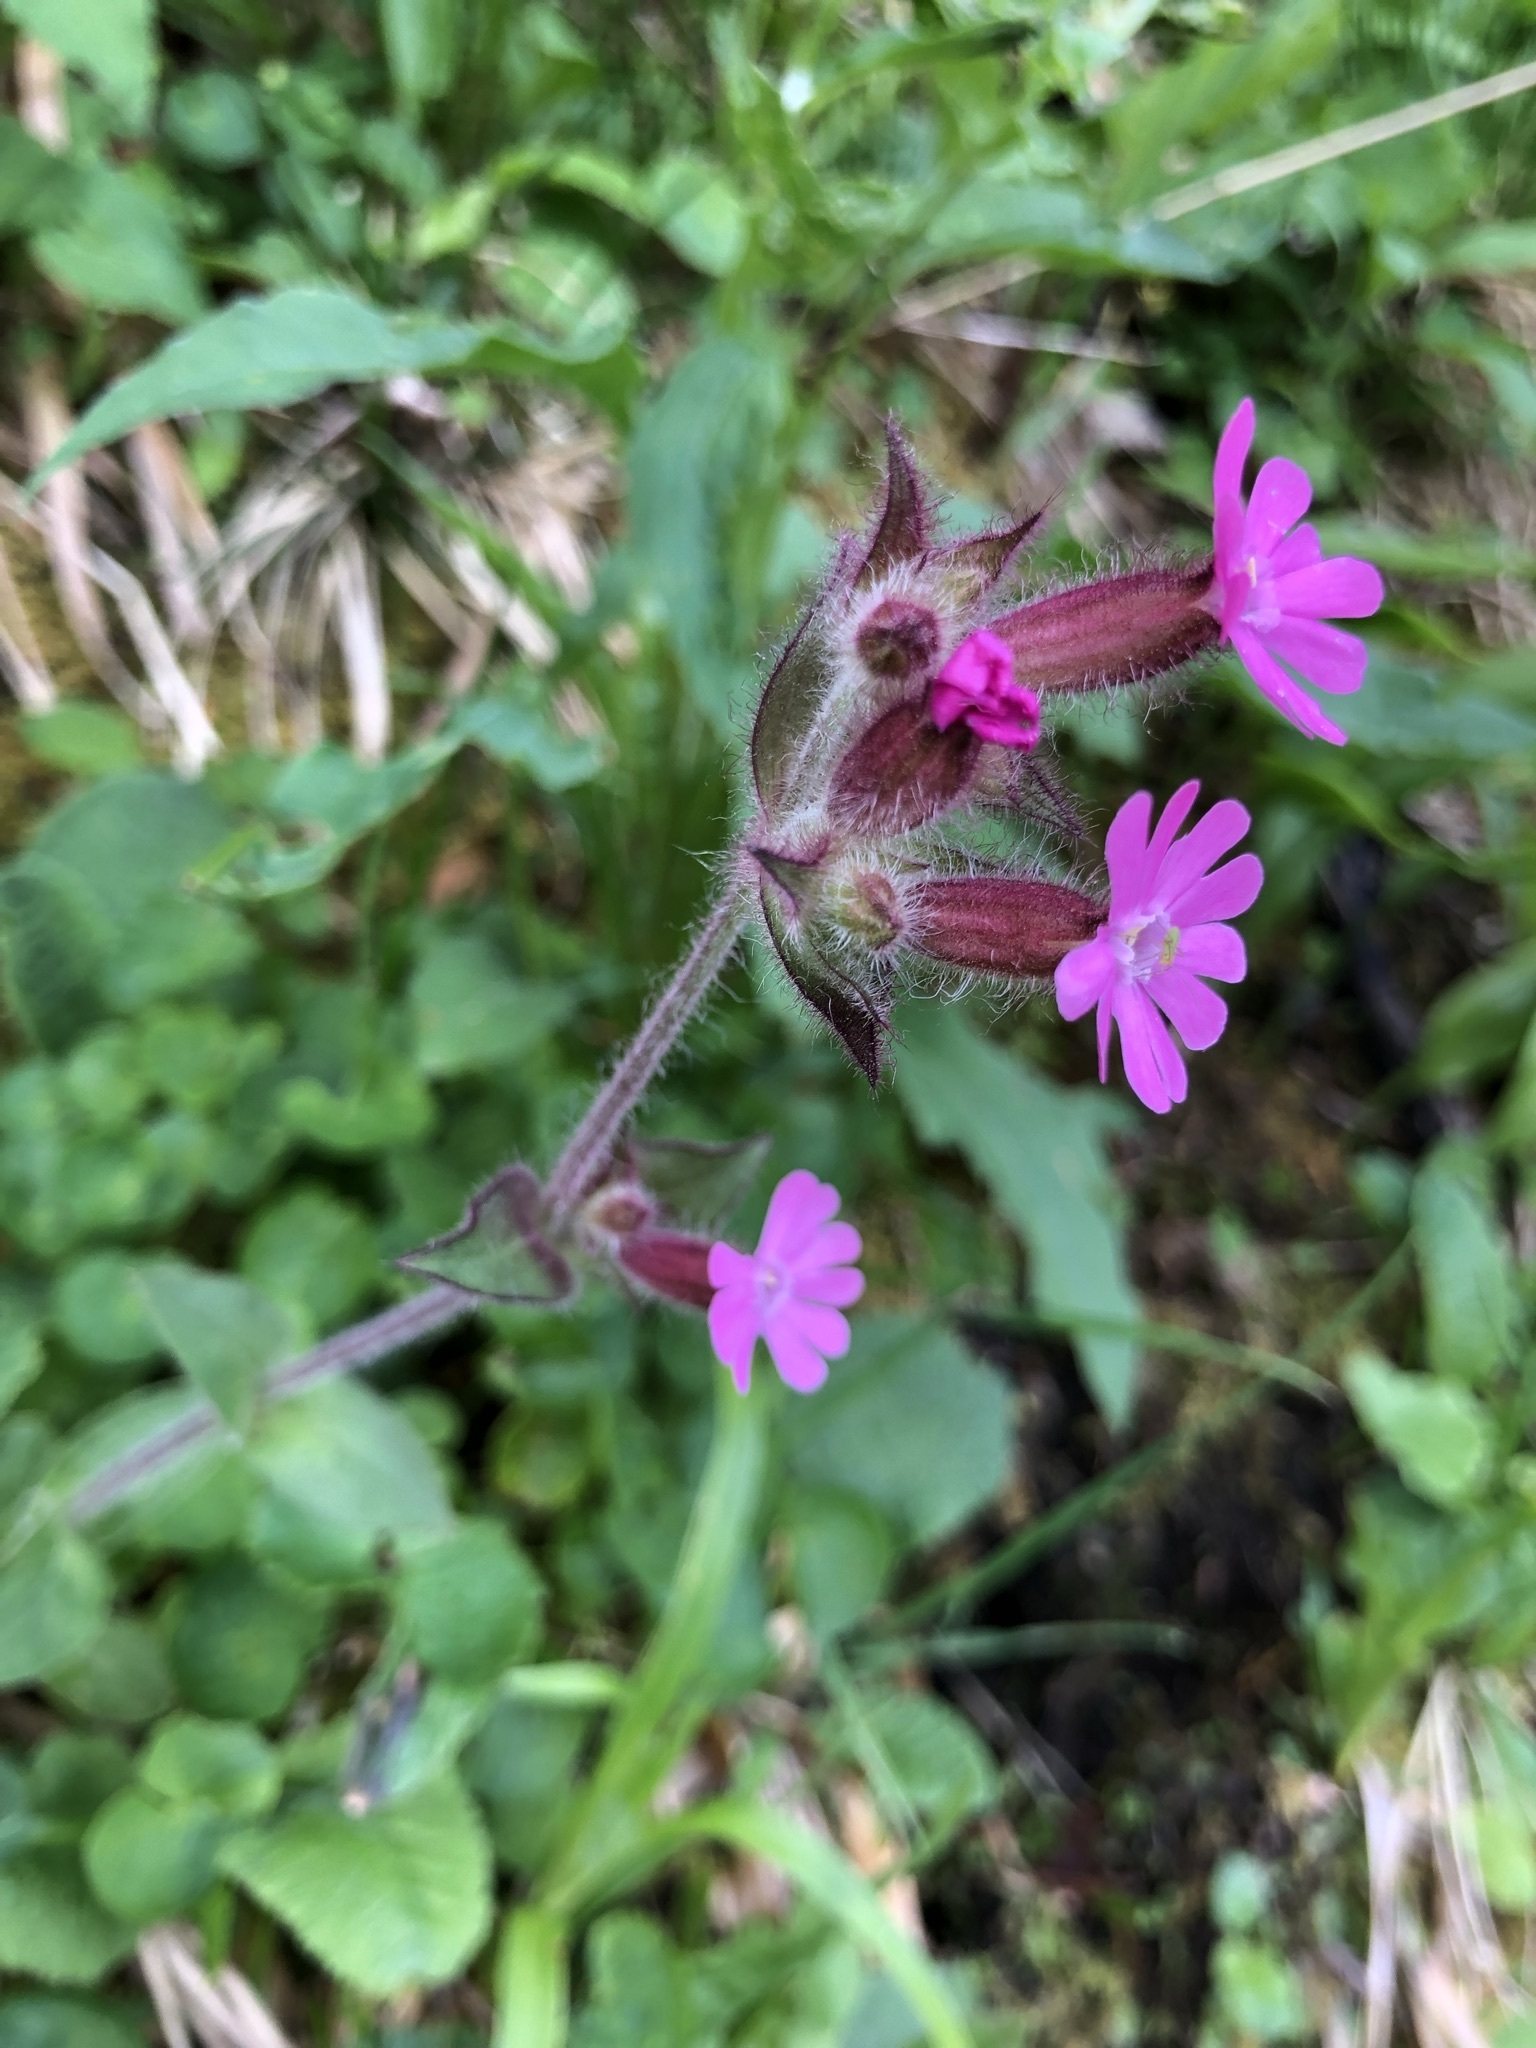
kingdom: Plantae
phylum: Tracheophyta
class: Magnoliopsida
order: Caryophyllales
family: Caryophyllaceae
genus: Silene
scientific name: Silene dioica
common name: Red campion
